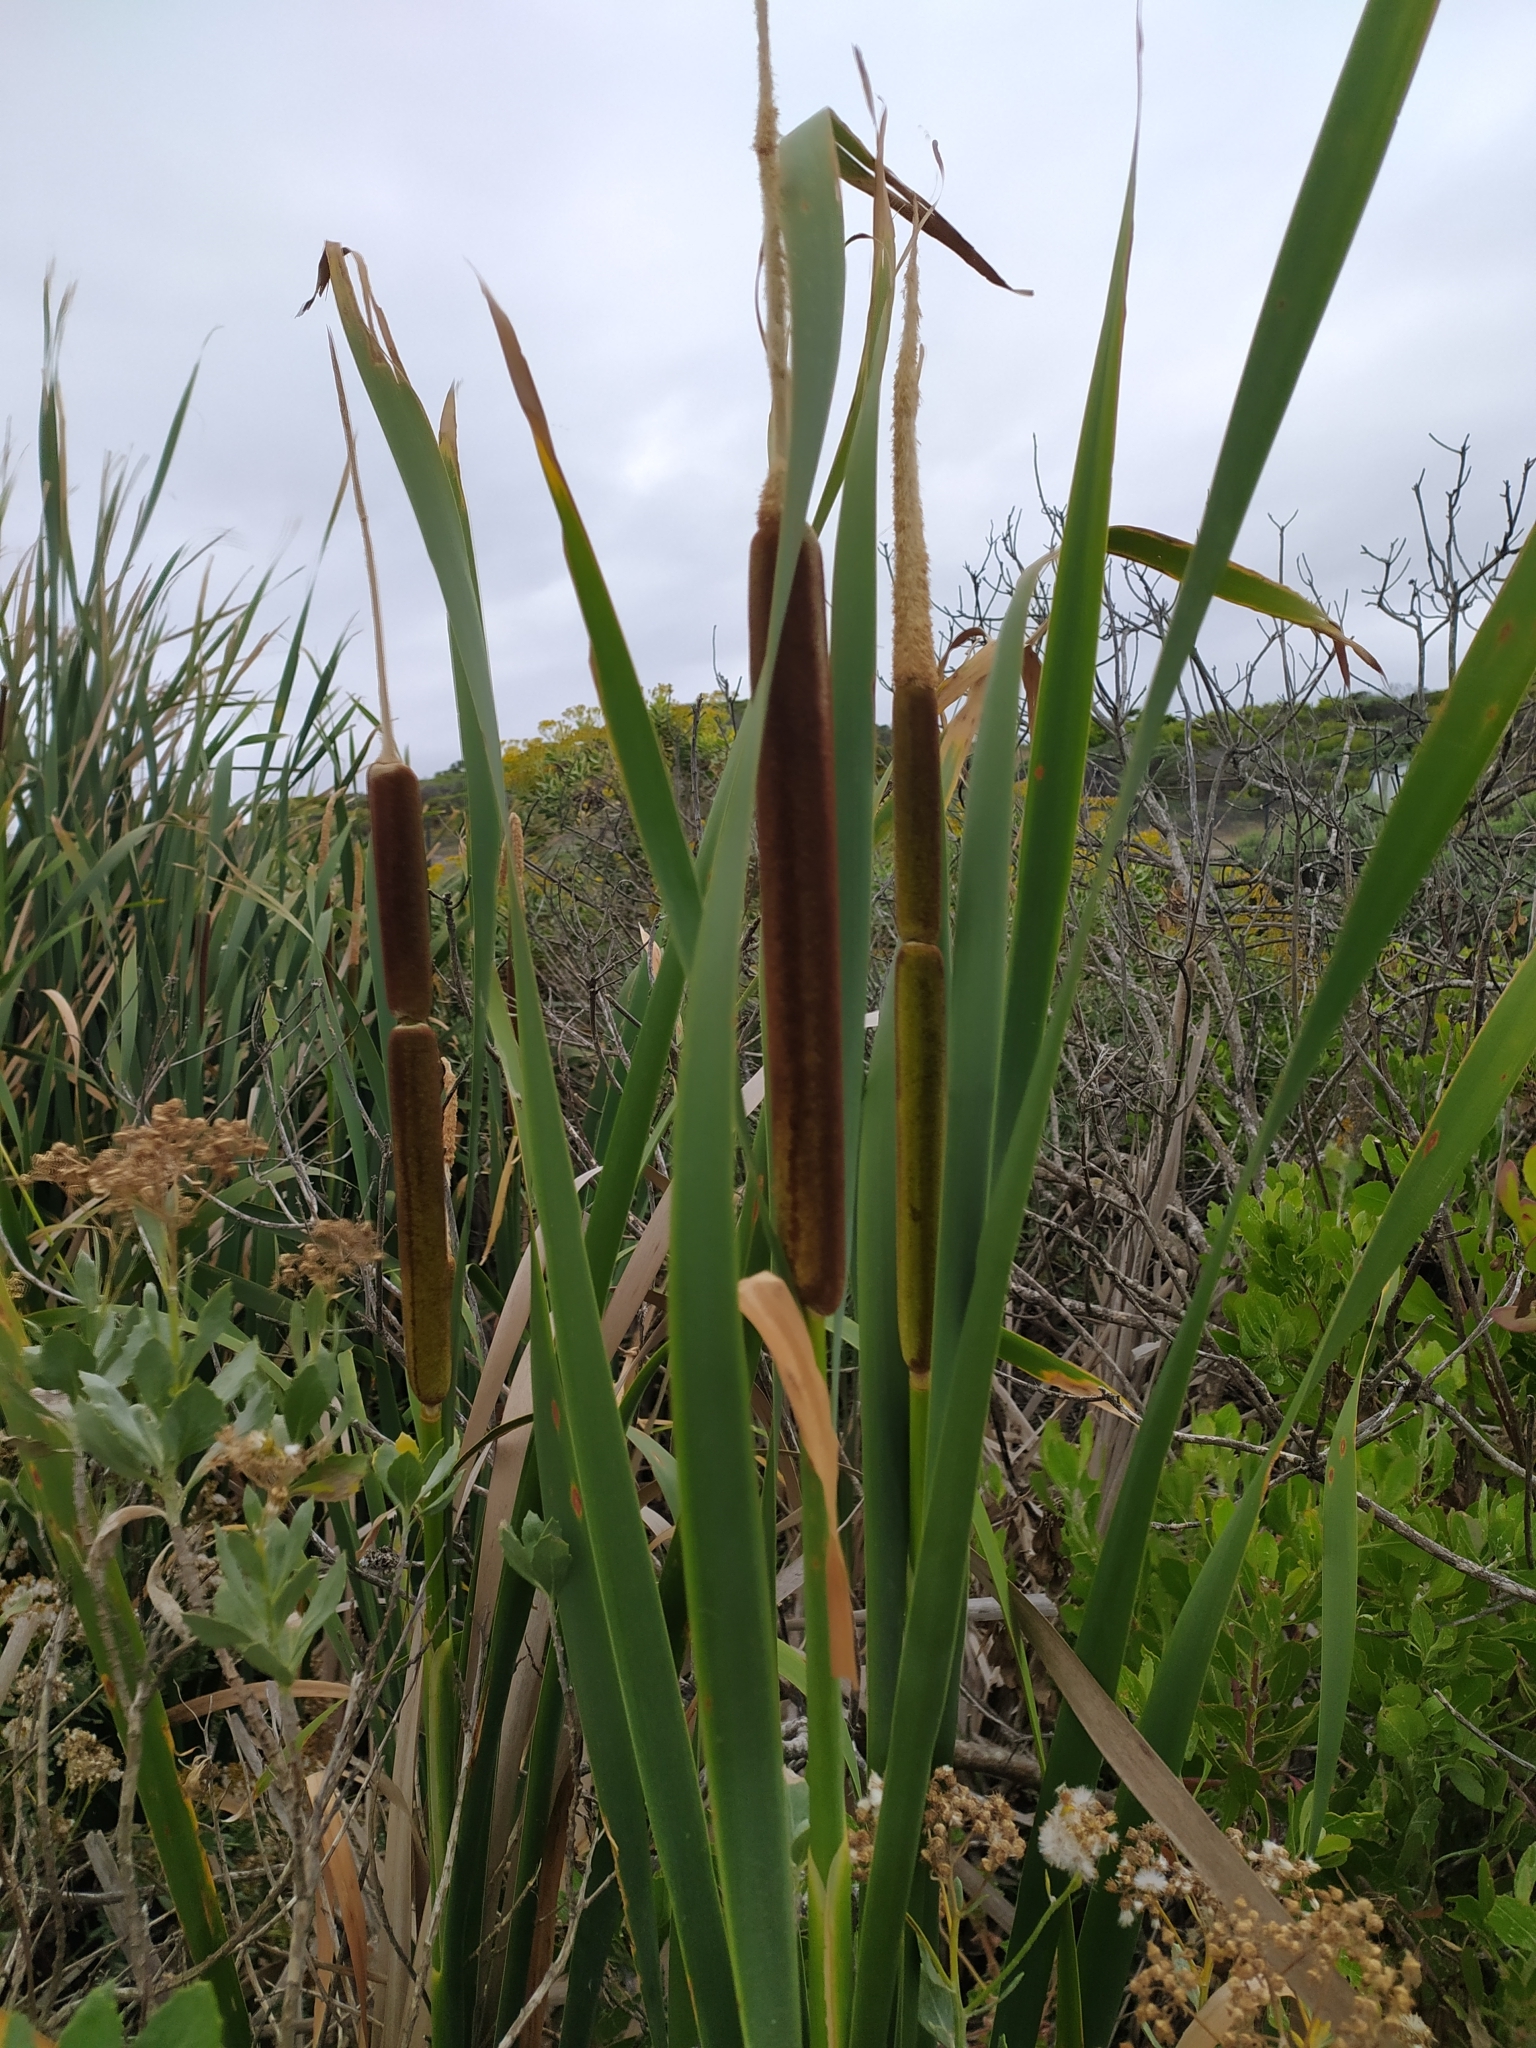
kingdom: Plantae
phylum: Tracheophyta
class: Liliopsida
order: Poales
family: Typhaceae
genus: Typha
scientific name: Typha capensis
